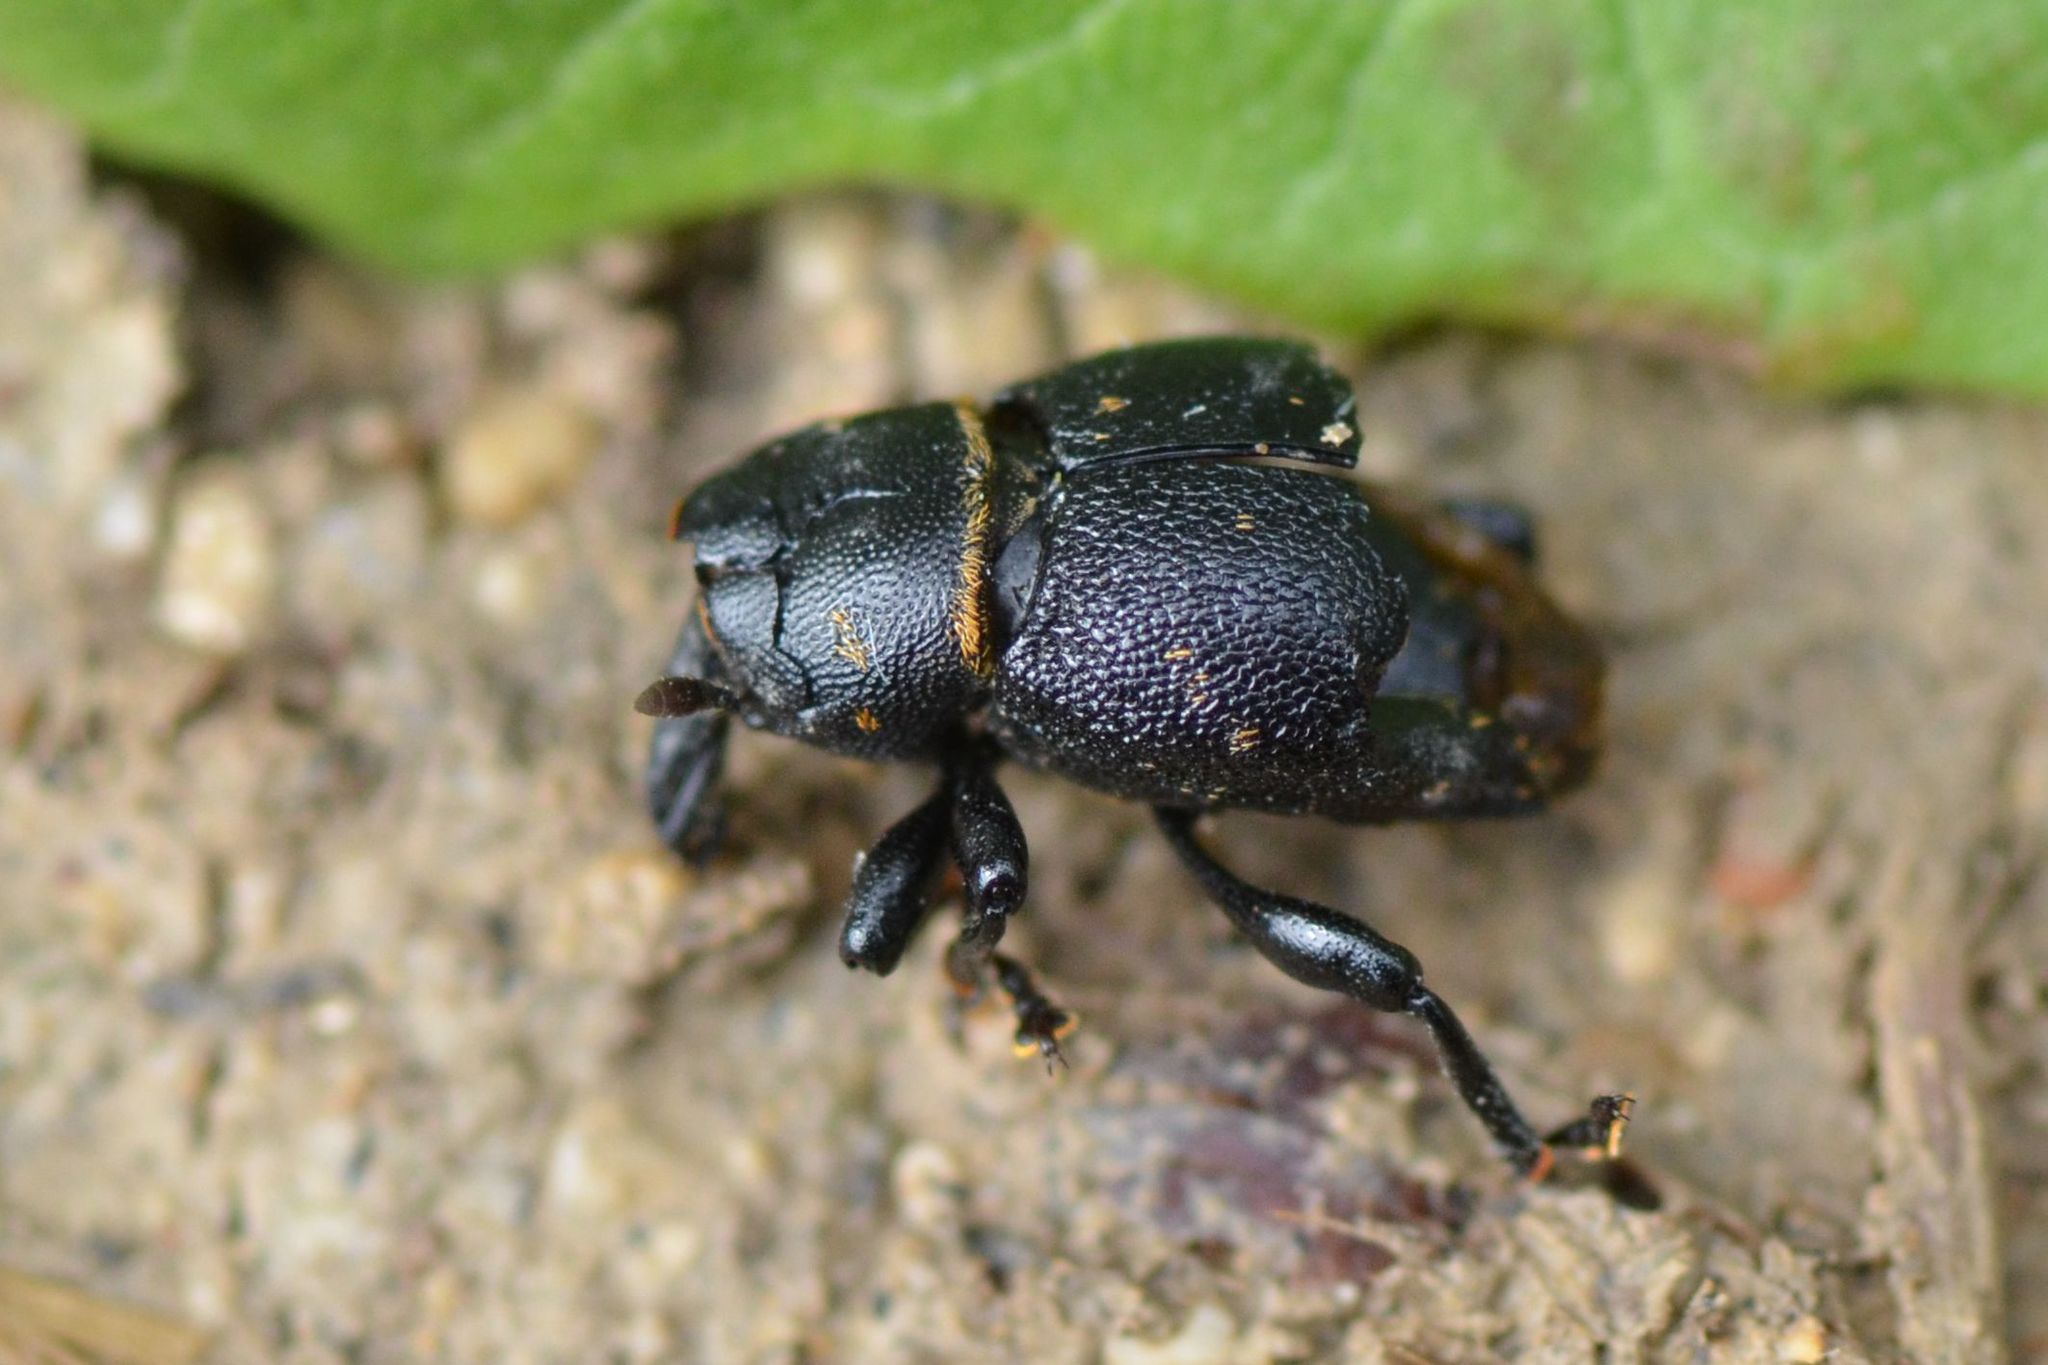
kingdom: Animalia
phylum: Arthropoda
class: Insecta
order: Coleoptera
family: Curculionidae
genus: Liparus
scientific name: Liparus coronatus
